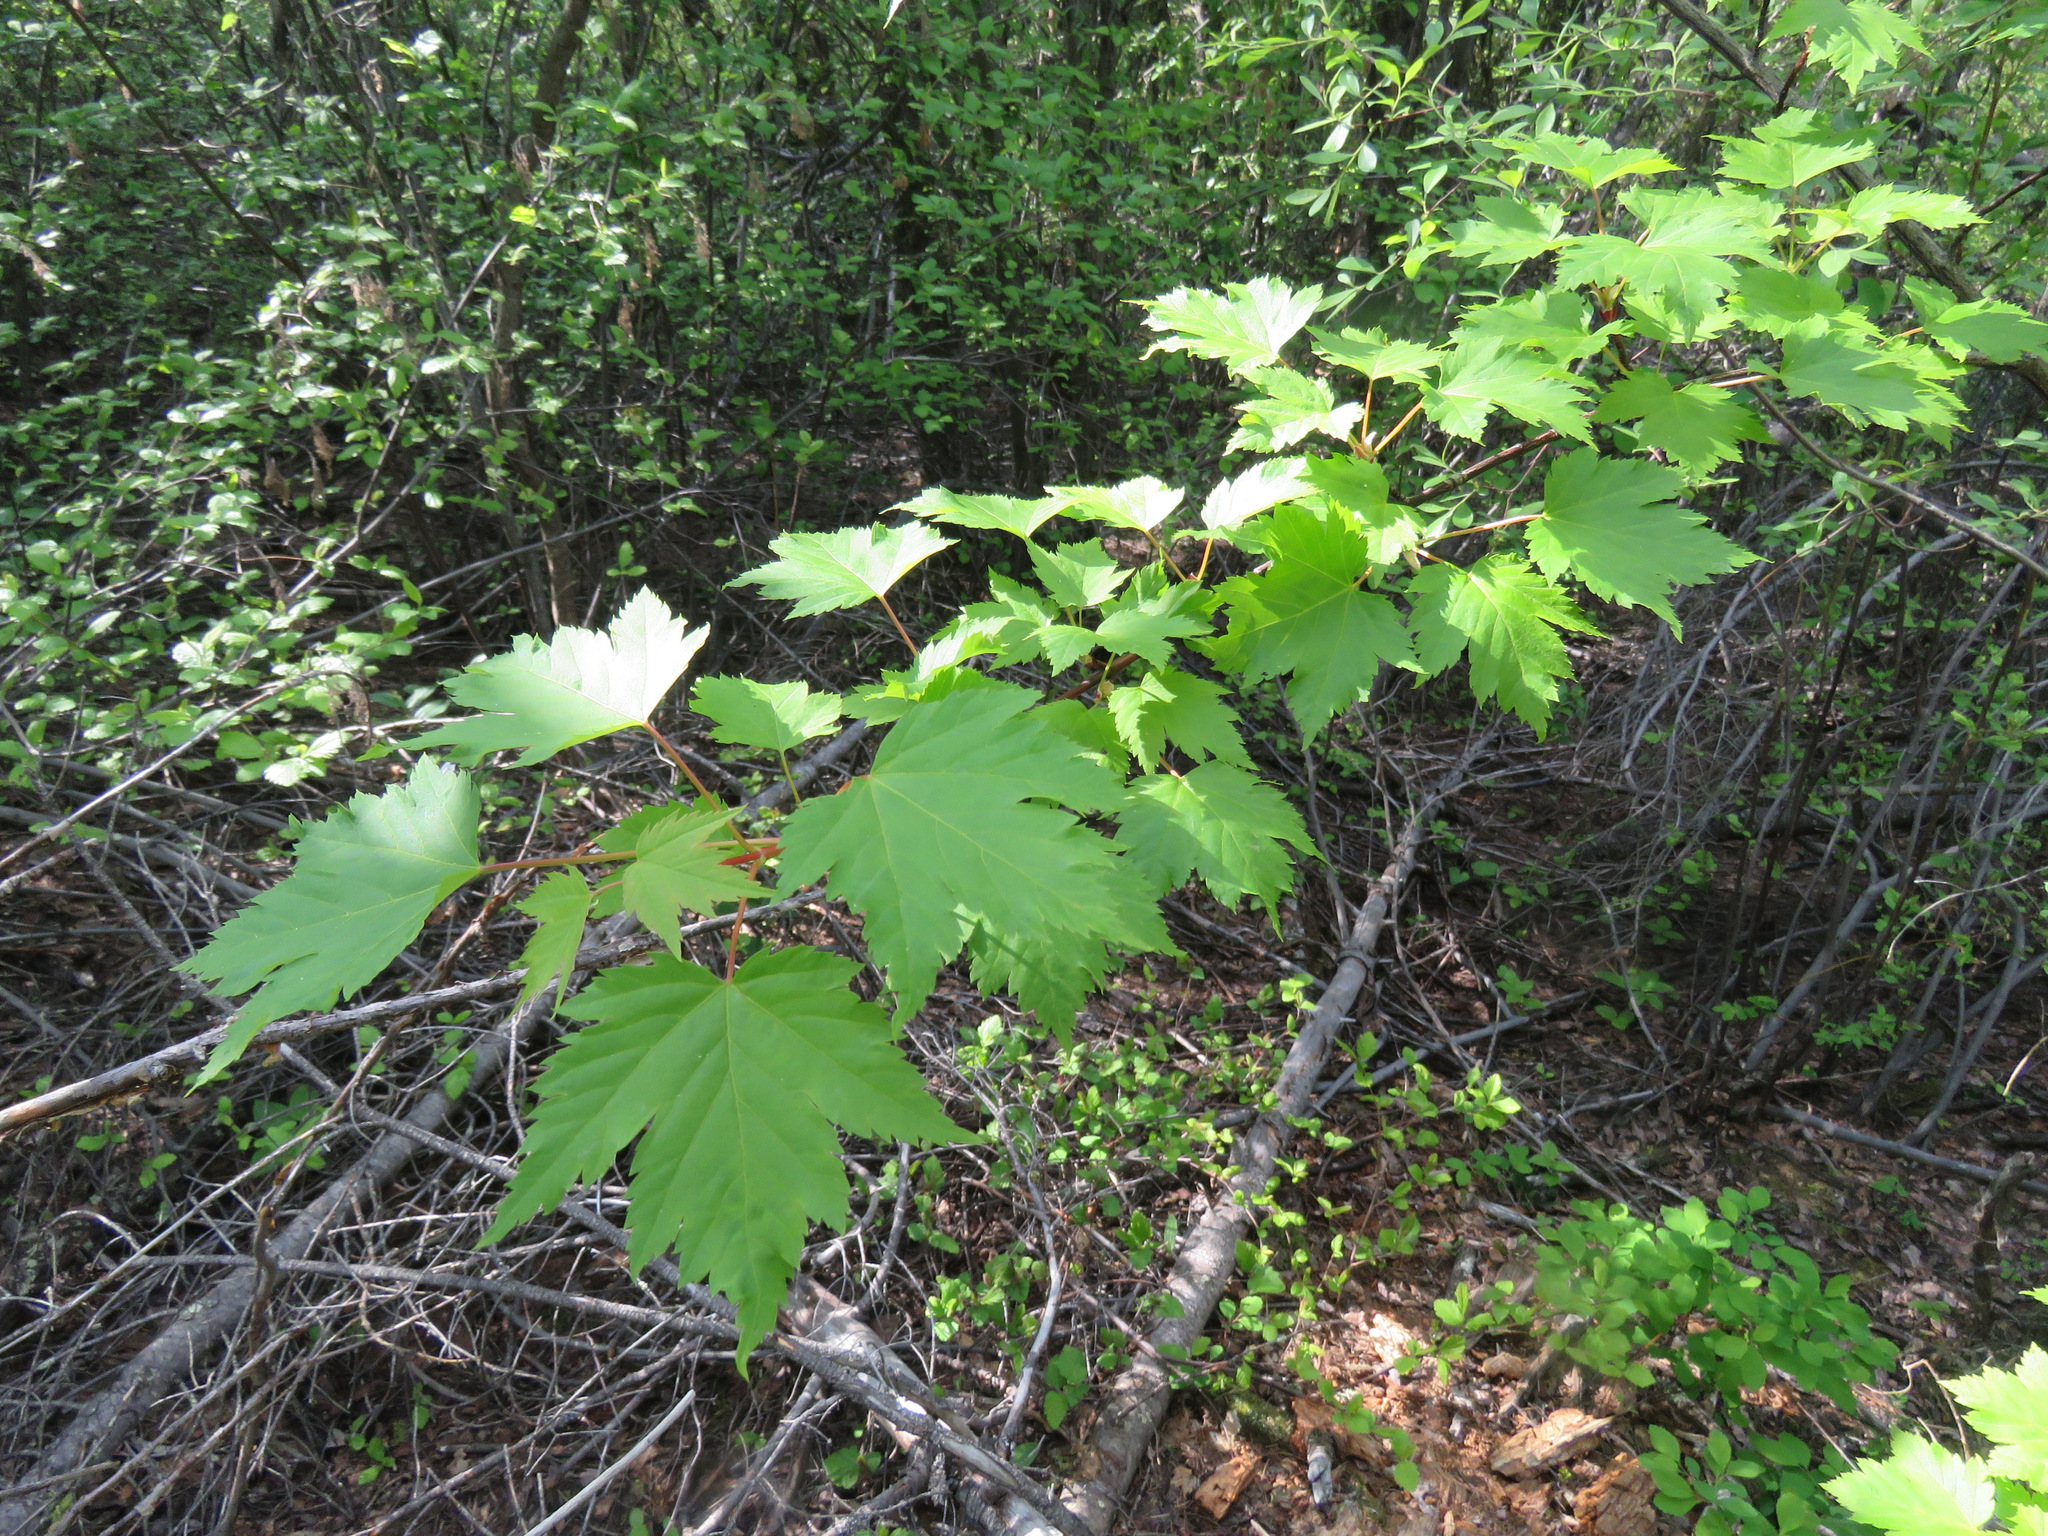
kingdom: Plantae
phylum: Tracheophyta
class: Magnoliopsida
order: Sapindales
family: Sapindaceae
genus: Acer
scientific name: Acer glabrum
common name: Rocky mountain maple
